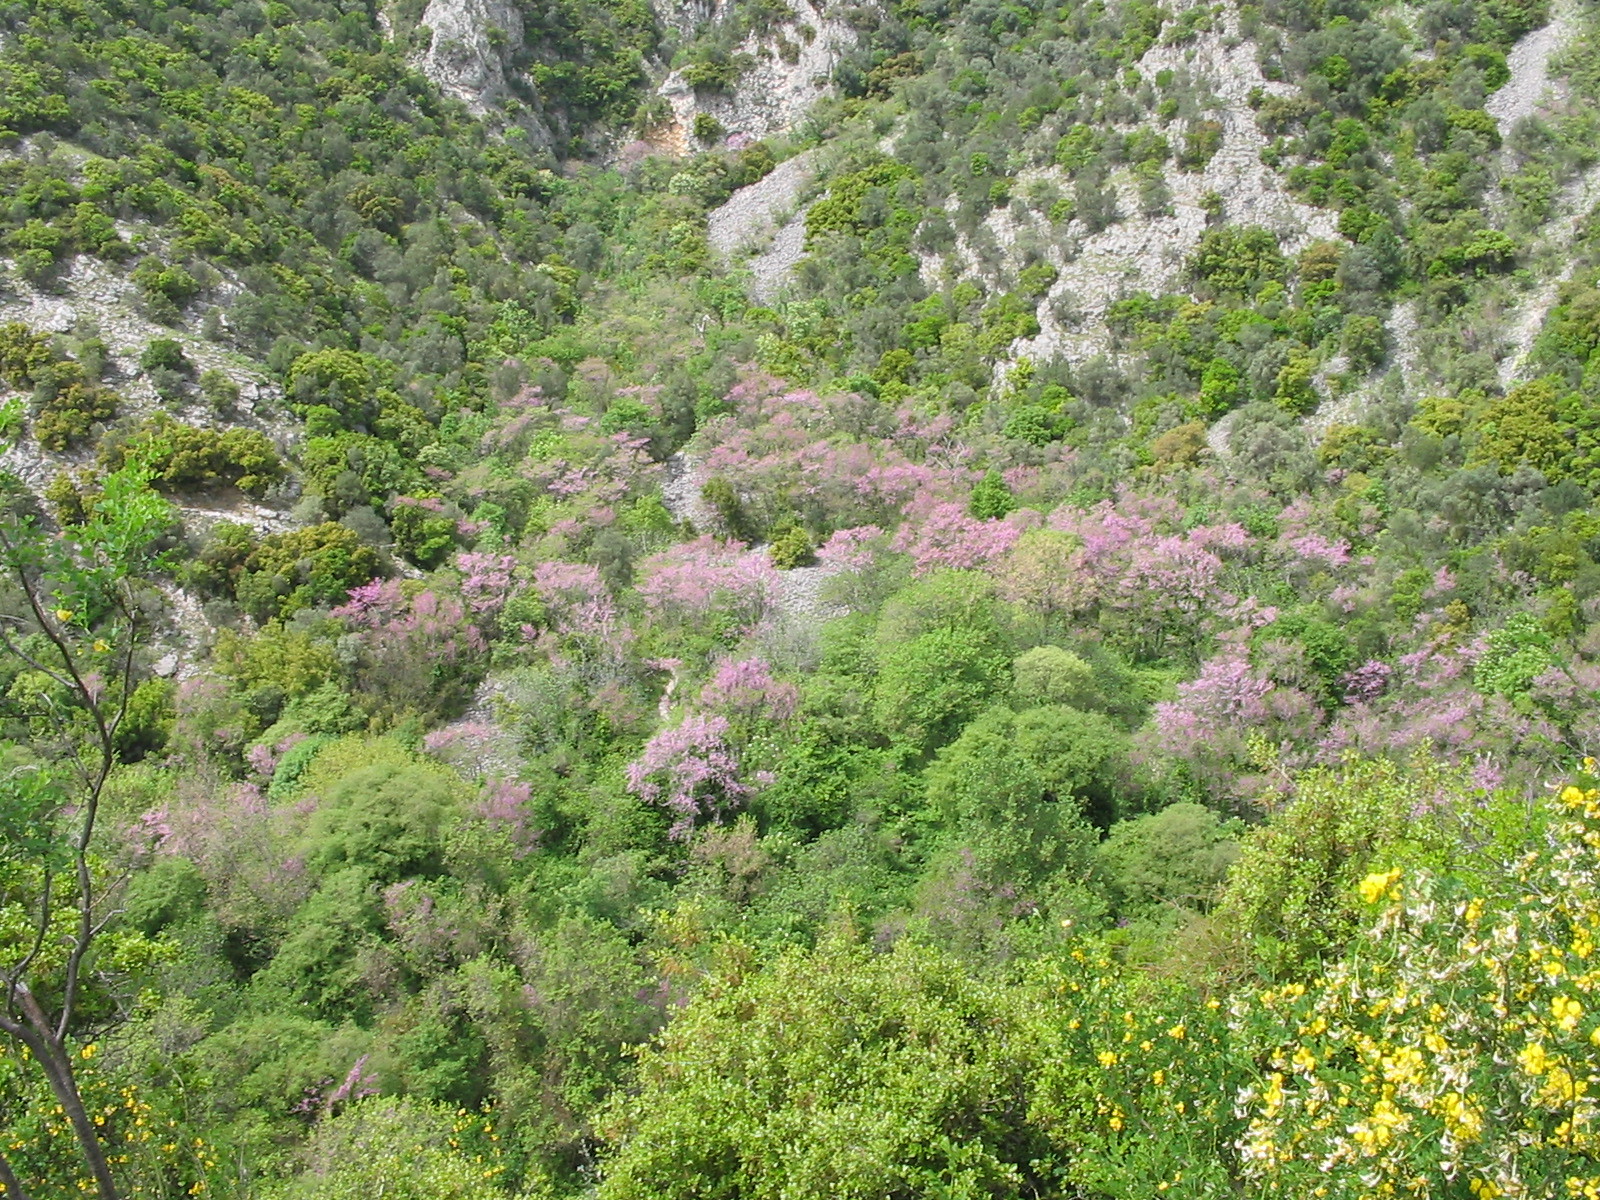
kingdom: Plantae
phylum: Tracheophyta
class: Magnoliopsida
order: Fabales
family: Fabaceae
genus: Cercis
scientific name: Cercis siliquastrum
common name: Judas tree
